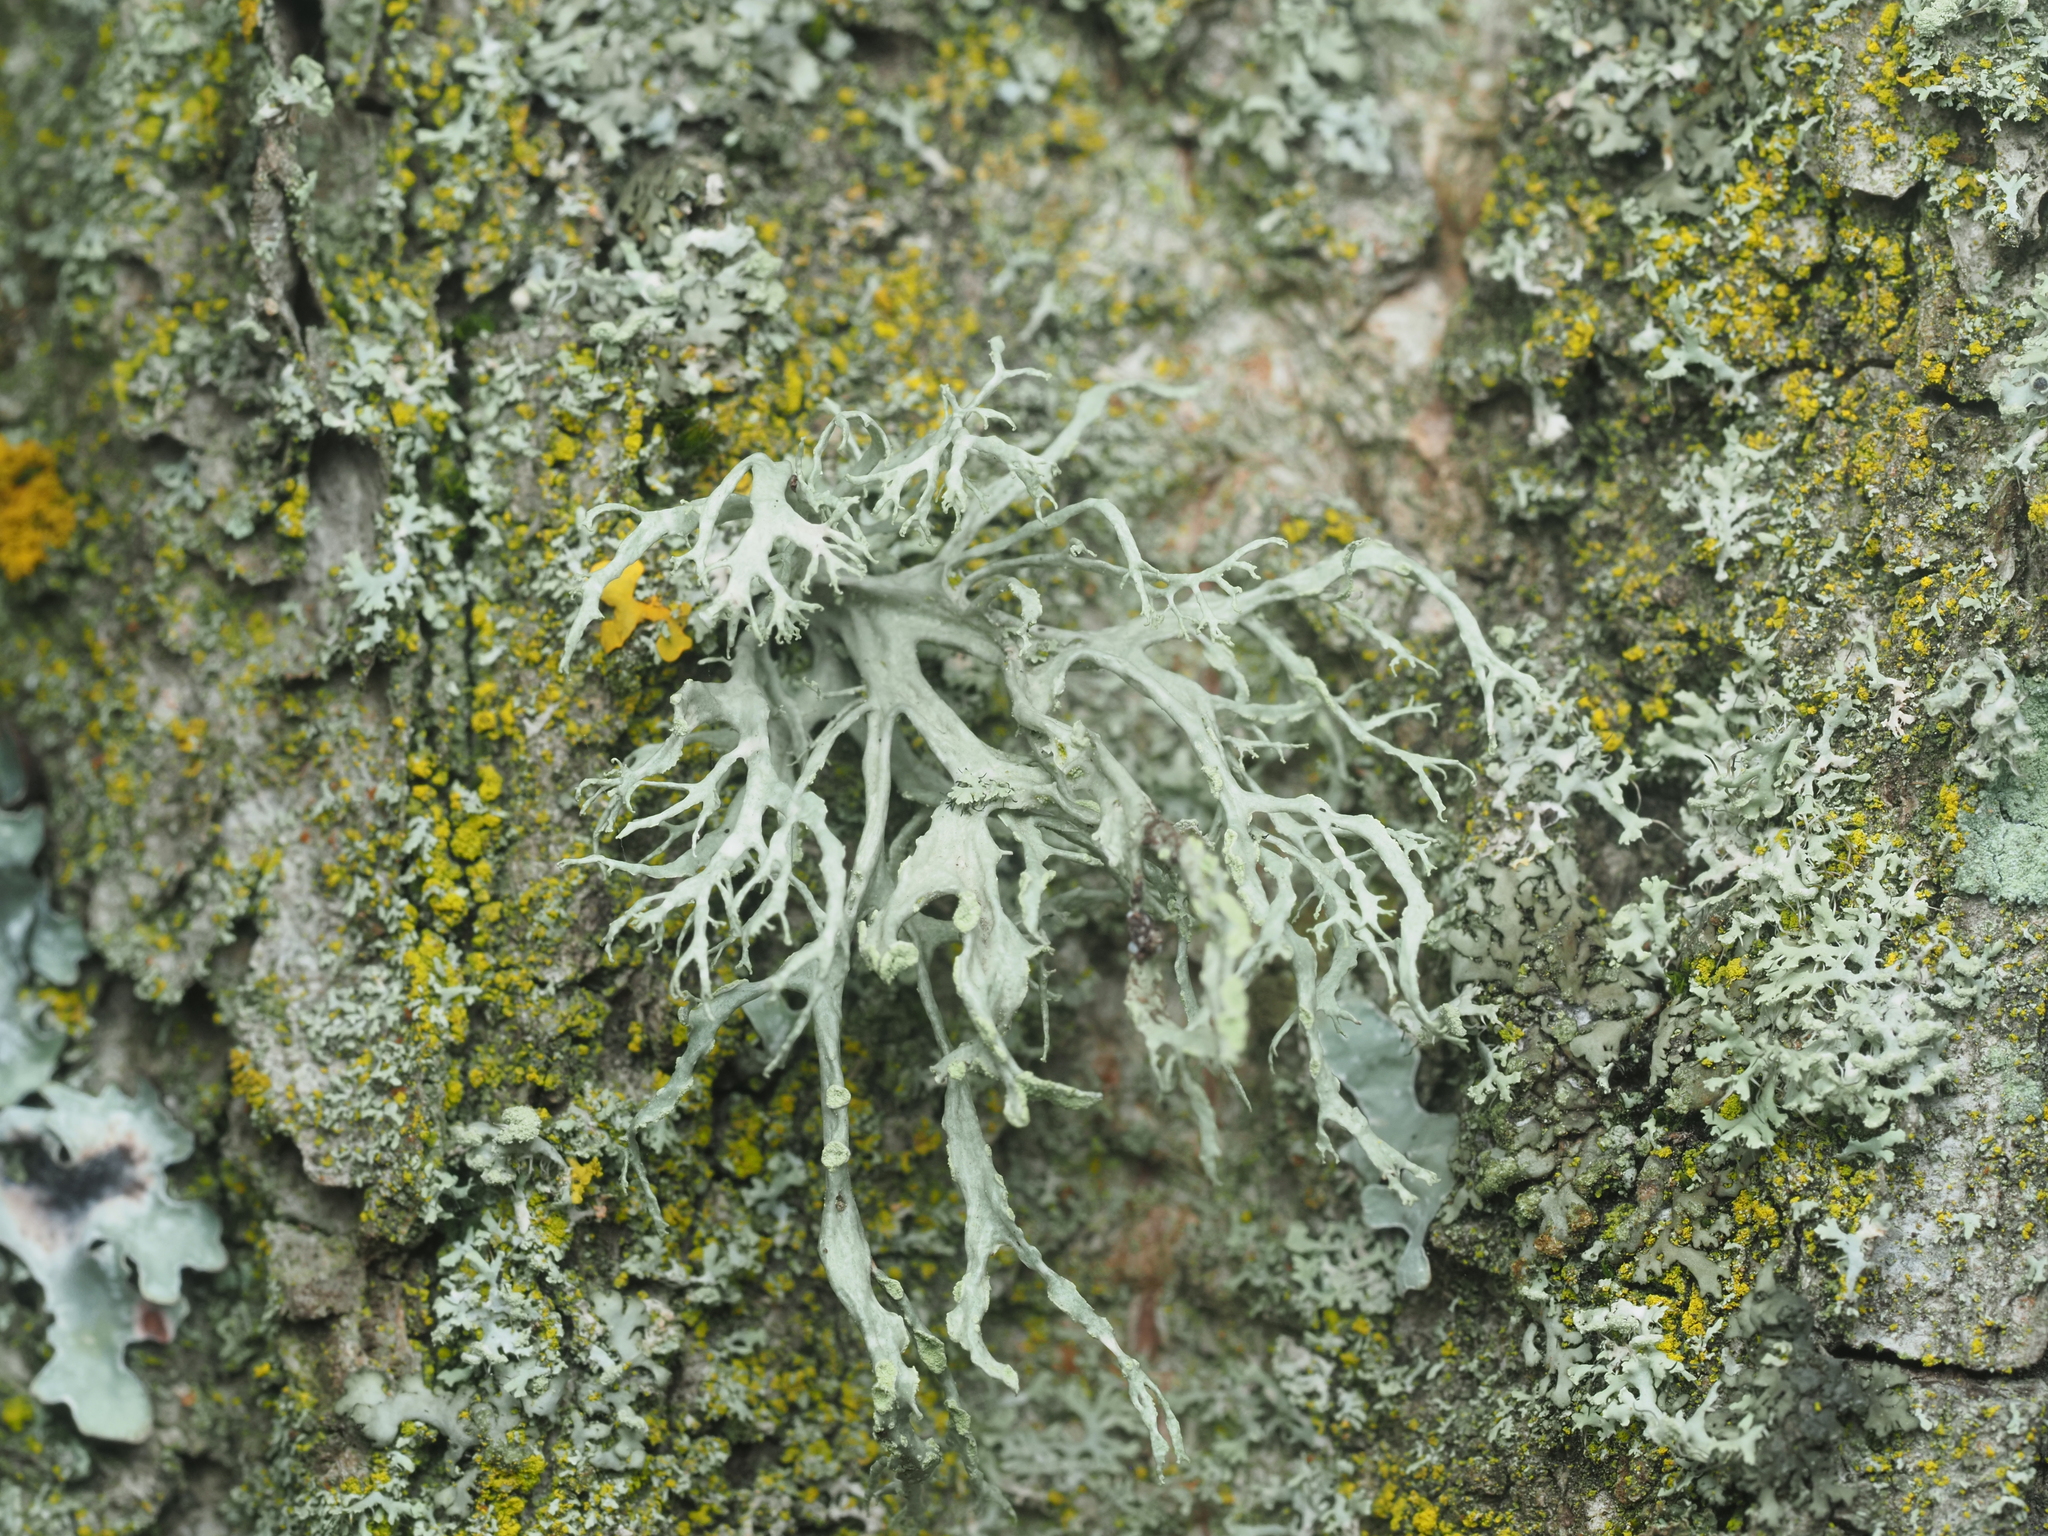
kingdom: Fungi
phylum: Ascomycota
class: Lecanoromycetes
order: Lecanorales
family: Ramalinaceae
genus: Ramalina
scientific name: Ramalina farinacea
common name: Farinose cartilage lichen
